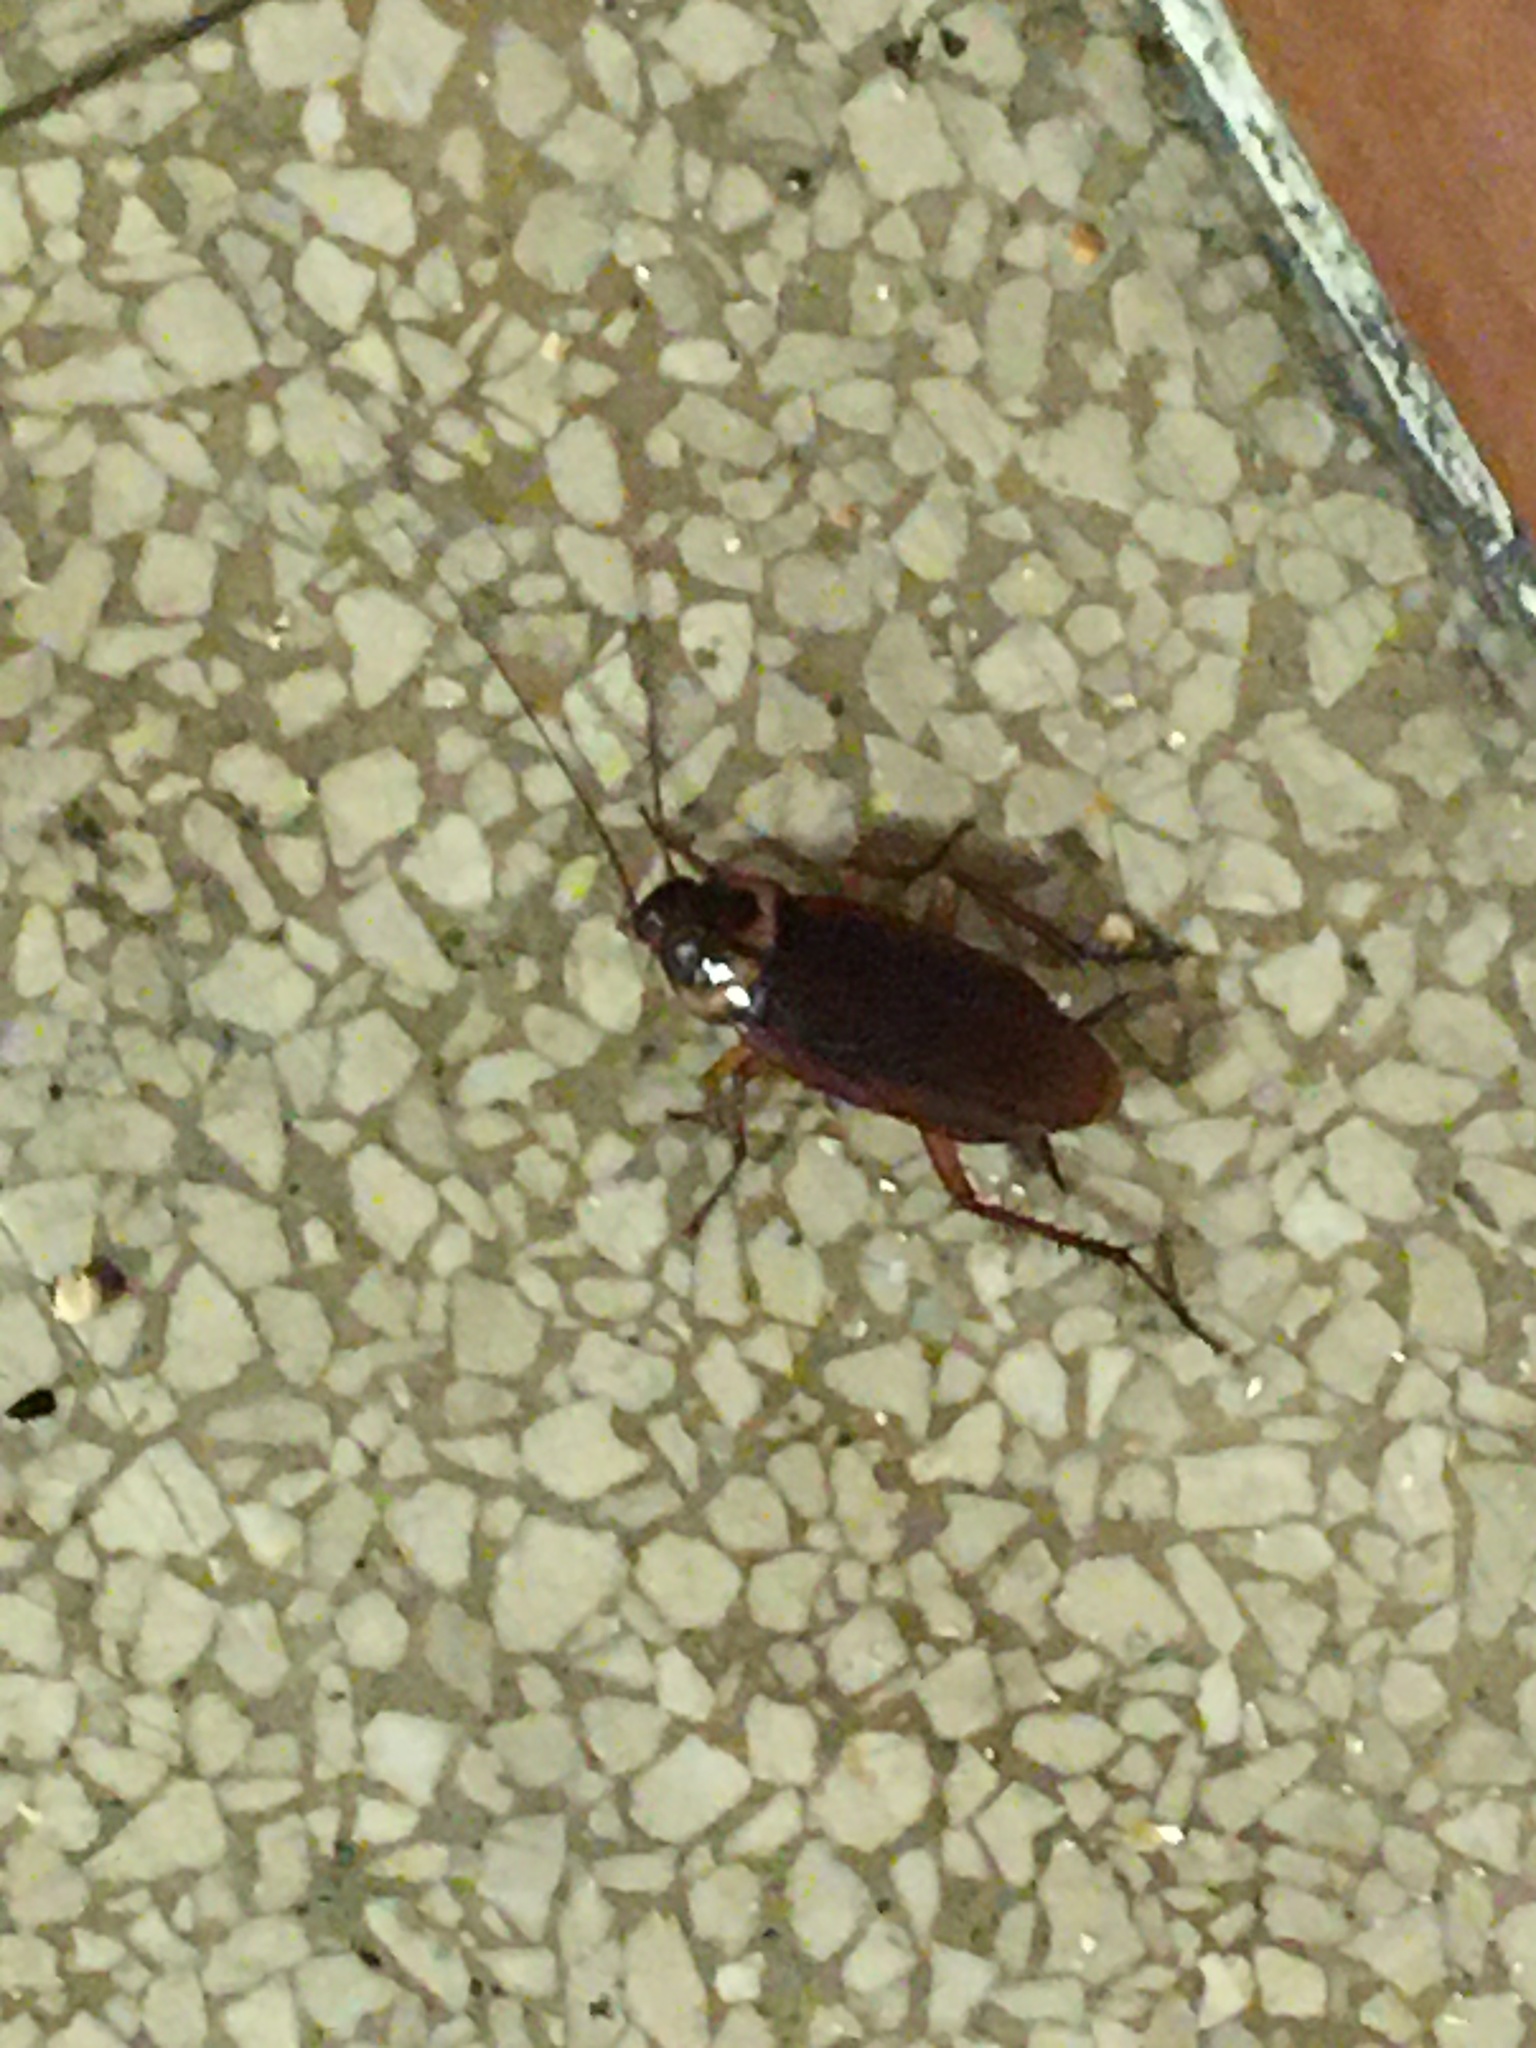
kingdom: Animalia
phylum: Arthropoda
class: Insecta
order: Blattodea
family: Blattidae
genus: Periplaneta
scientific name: Periplaneta americana
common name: American cockroach
